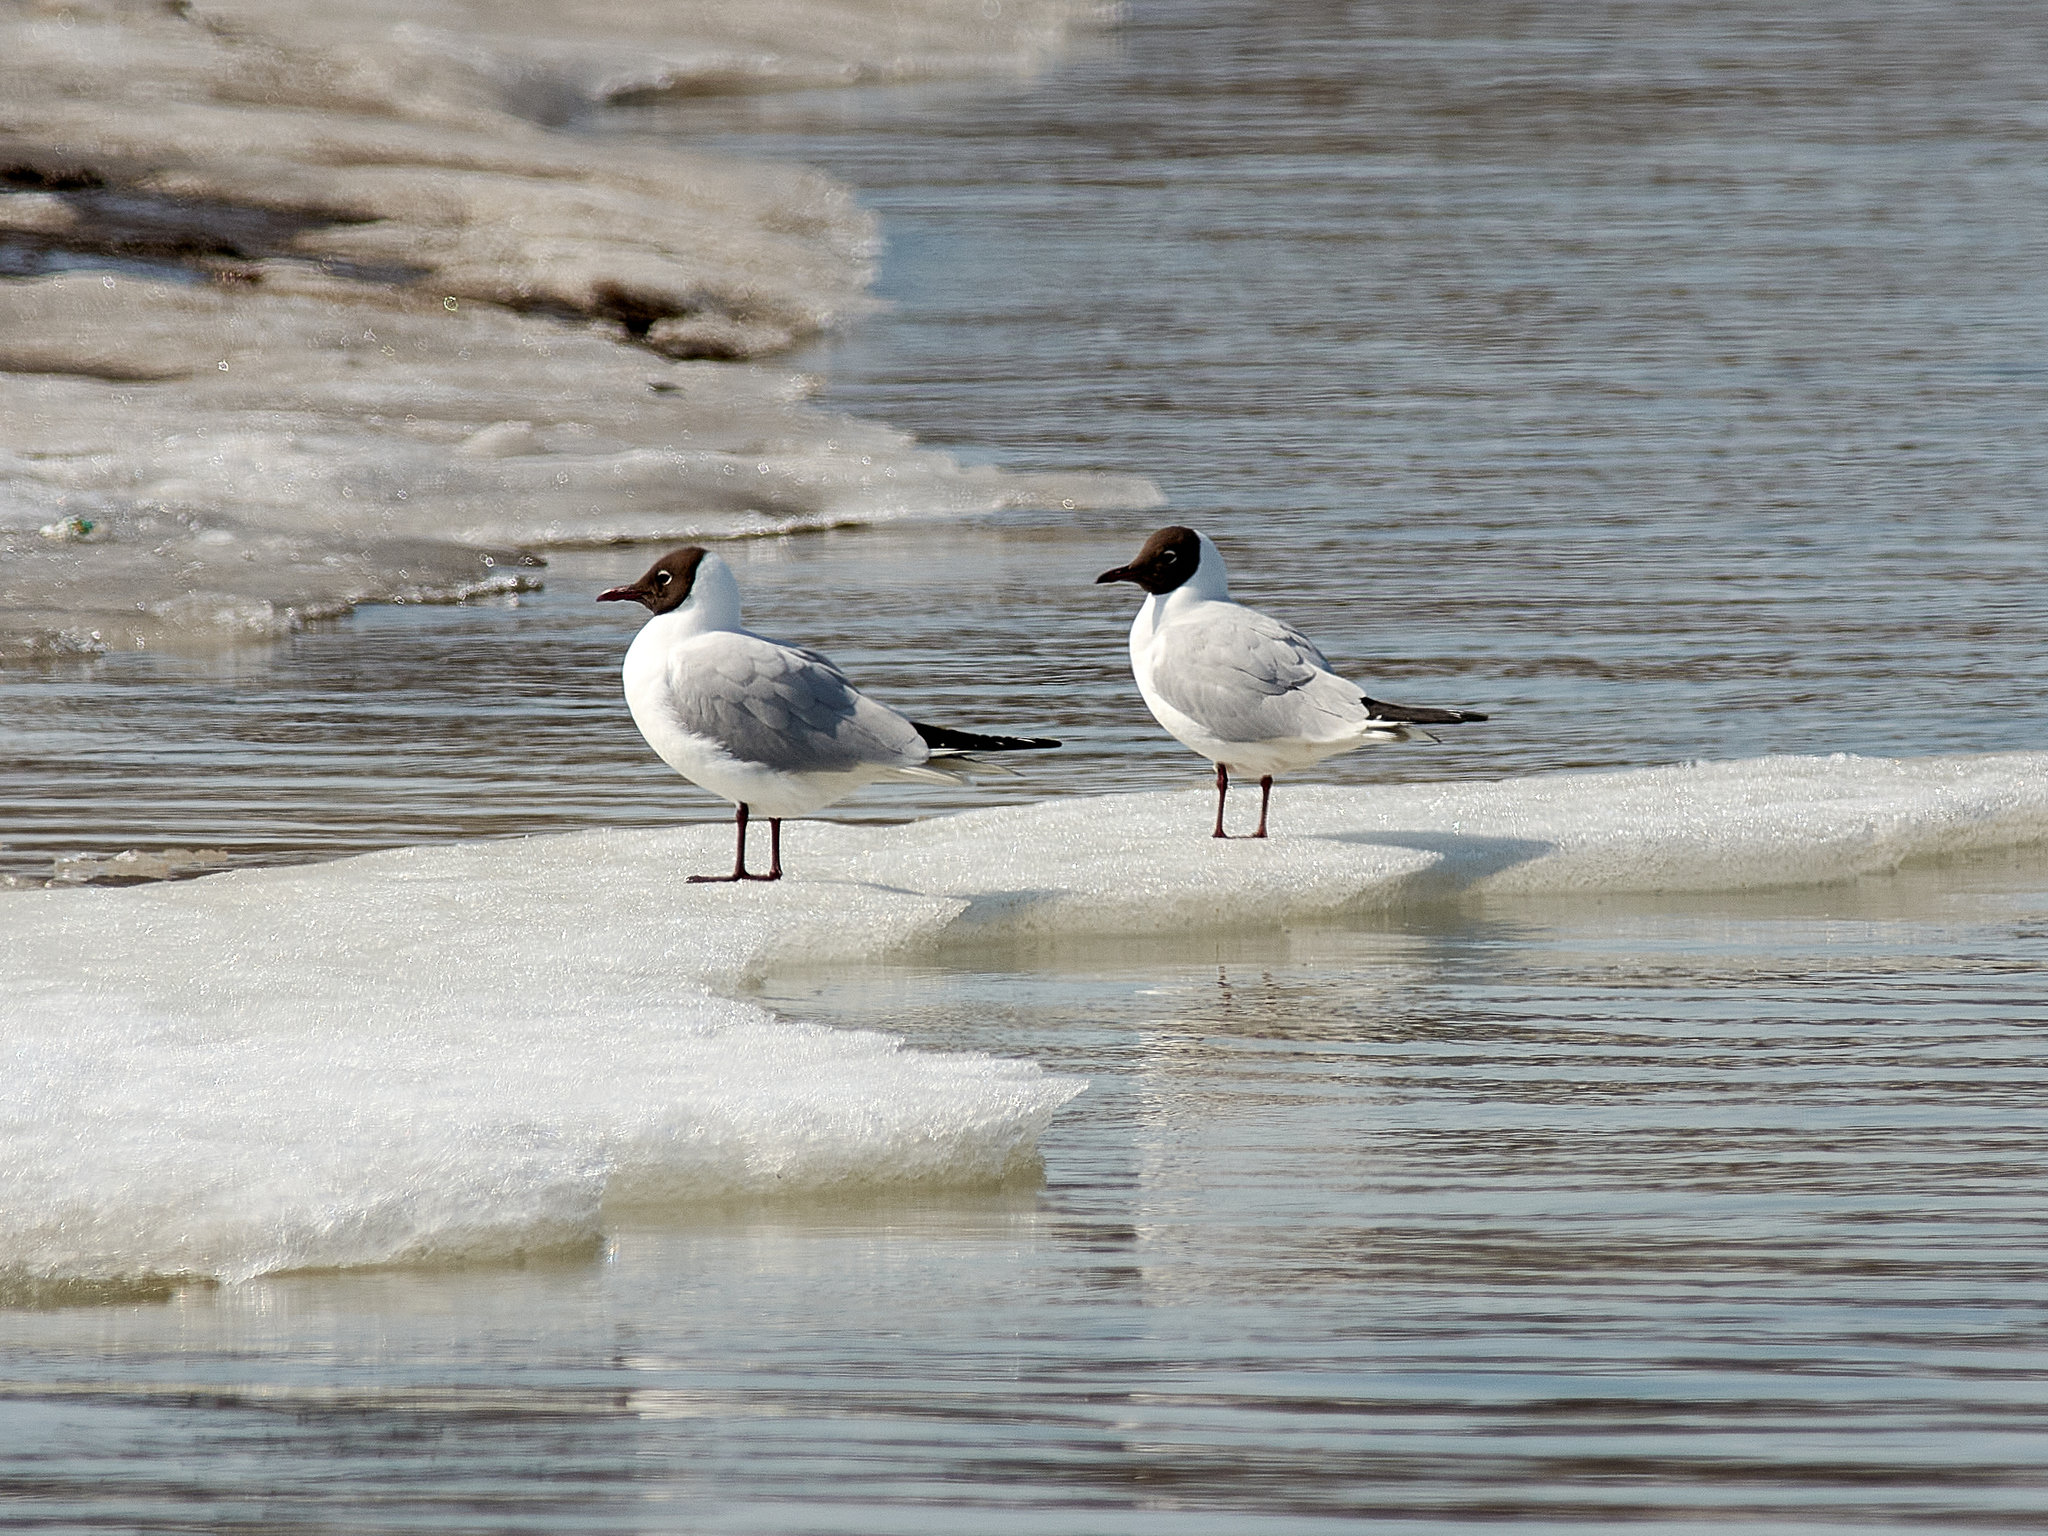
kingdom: Animalia
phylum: Chordata
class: Aves
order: Charadriiformes
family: Laridae
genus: Chroicocephalus
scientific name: Chroicocephalus ridibundus
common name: Black-headed gull
